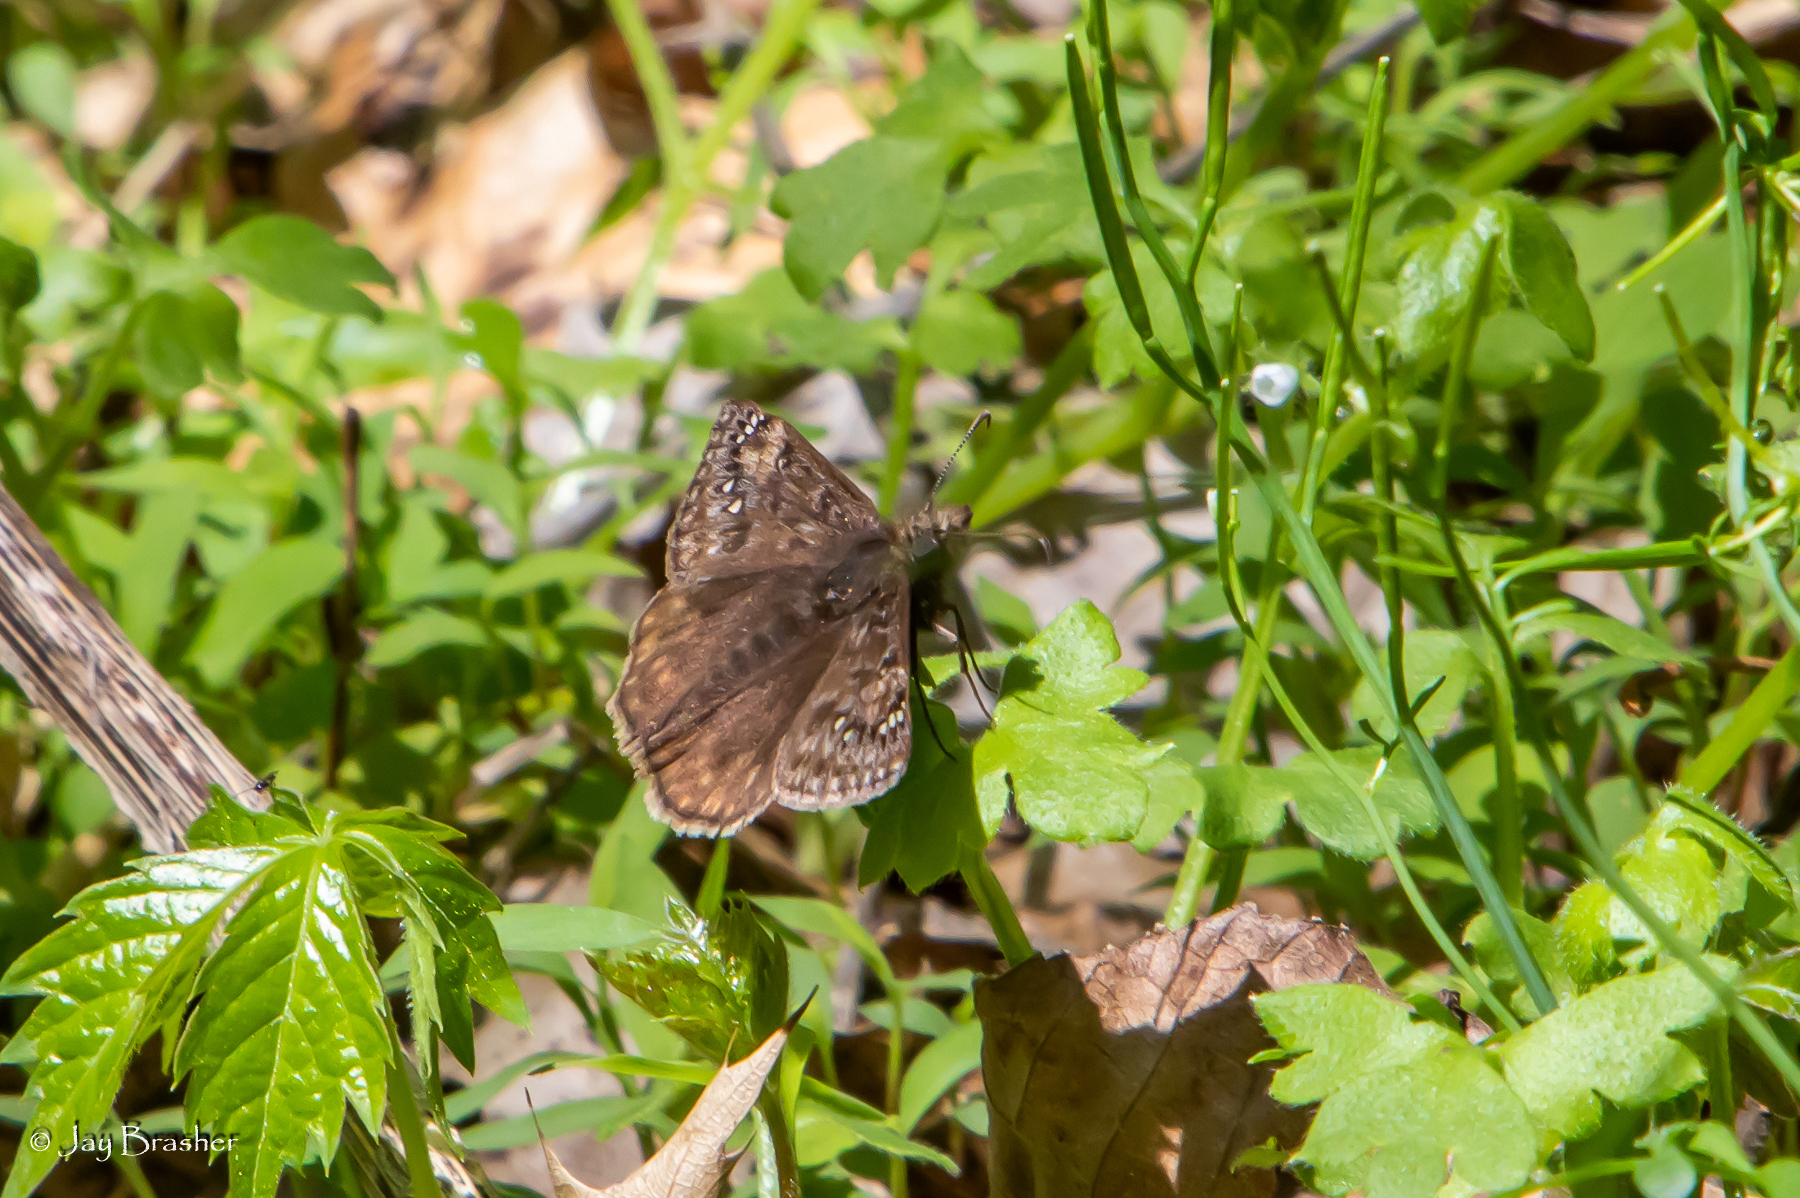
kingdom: Animalia
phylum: Arthropoda
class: Insecta
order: Lepidoptera
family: Hesperiidae
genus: Erynnis
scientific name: Erynnis juvenalis
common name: Juvenal's duskywing
